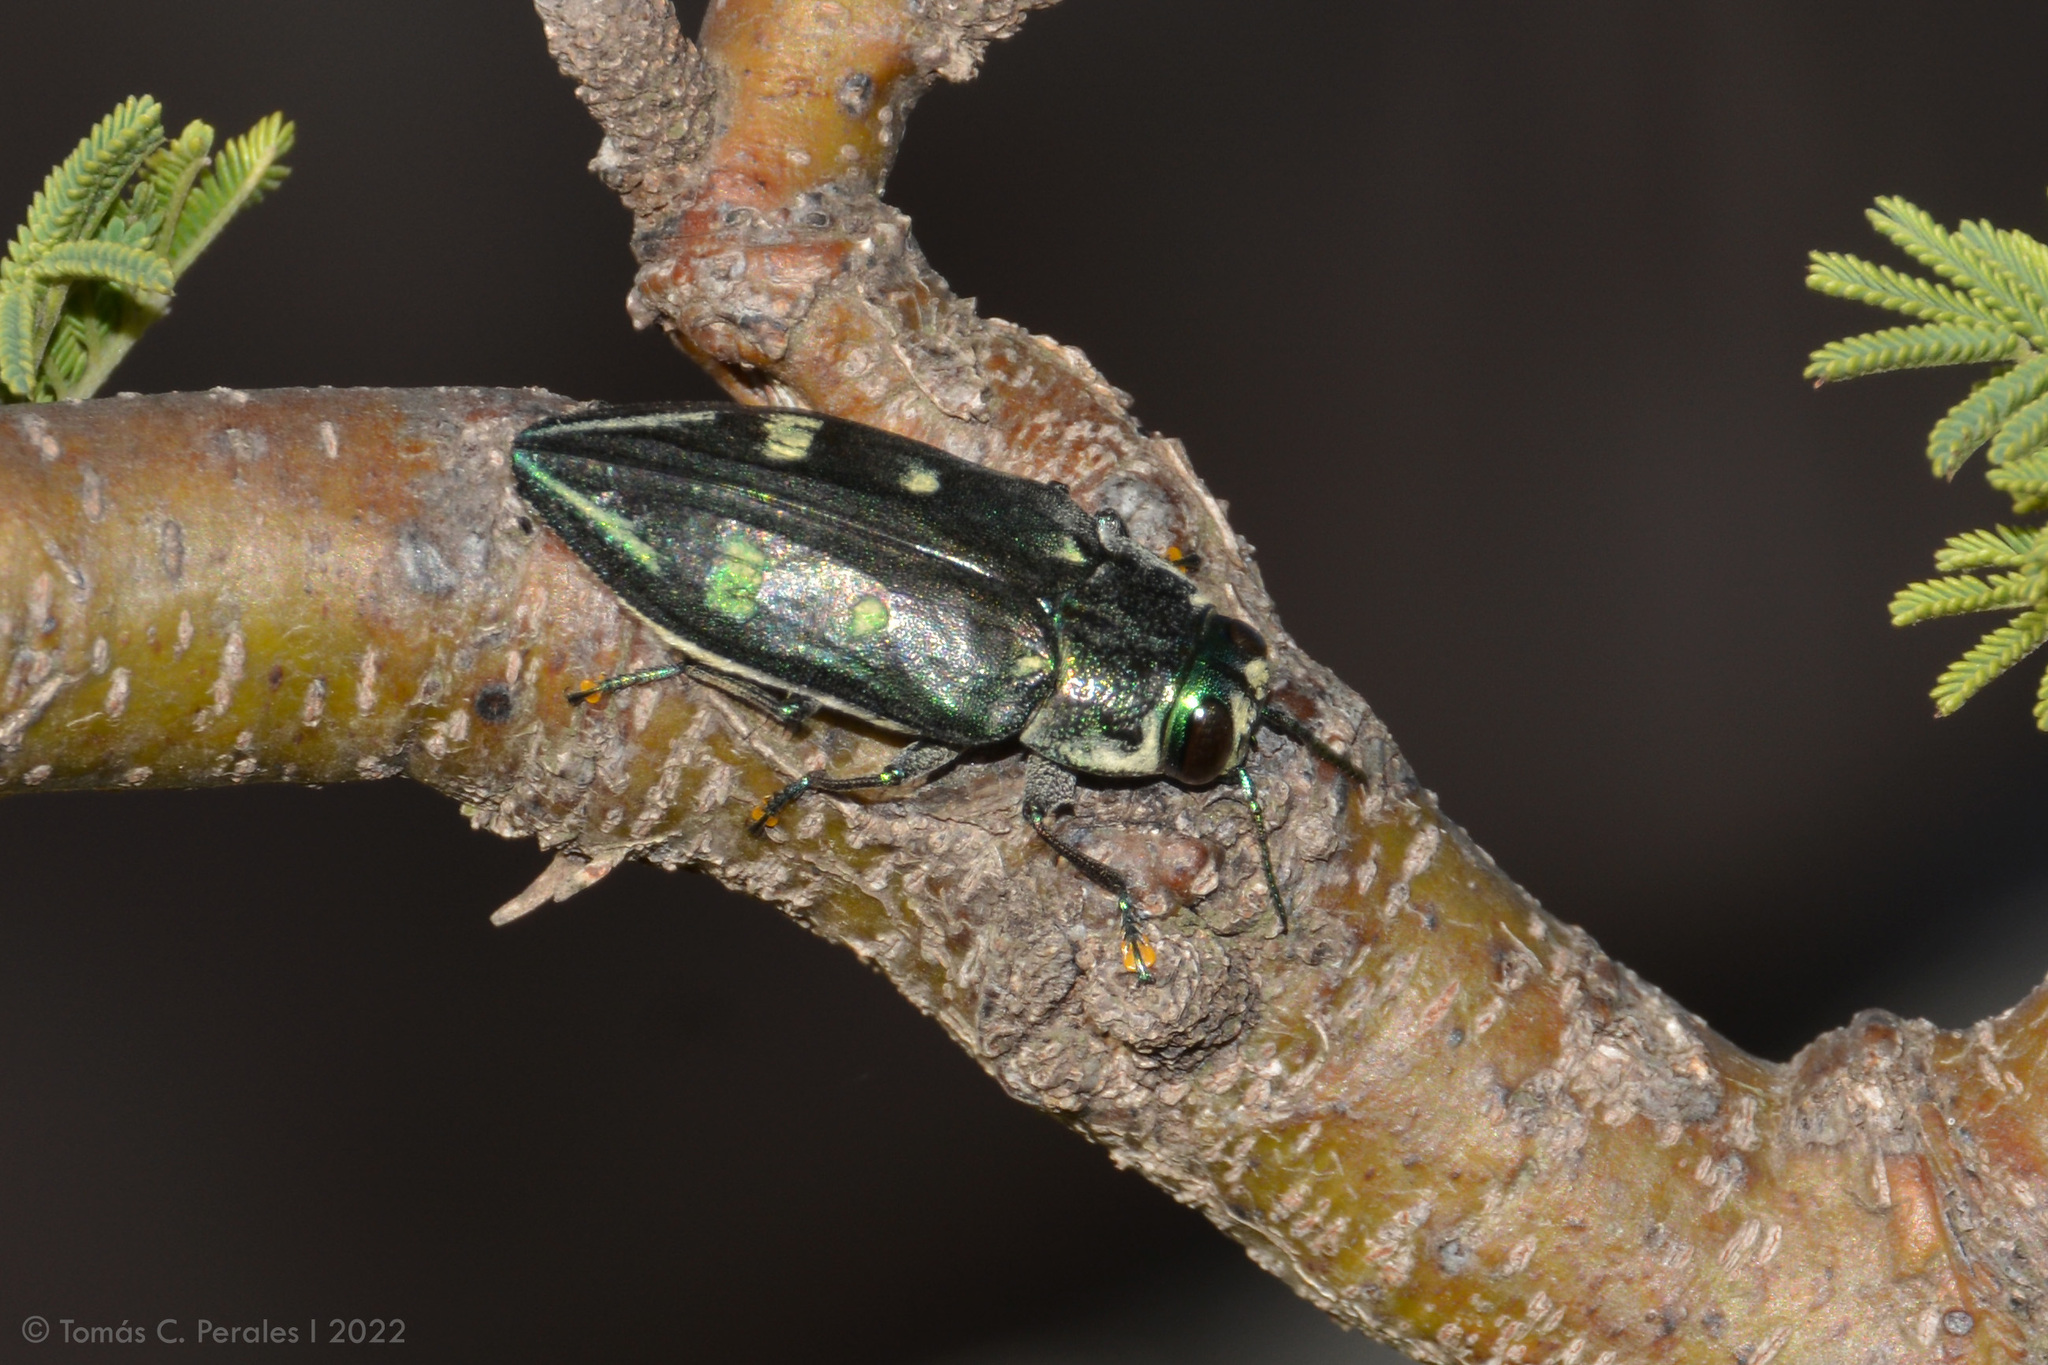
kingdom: Animalia
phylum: Arthropoda
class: Insecta
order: Coleoptera
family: Buprestidae
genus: Chrysobothris
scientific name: Chrysobothris desmaresti
